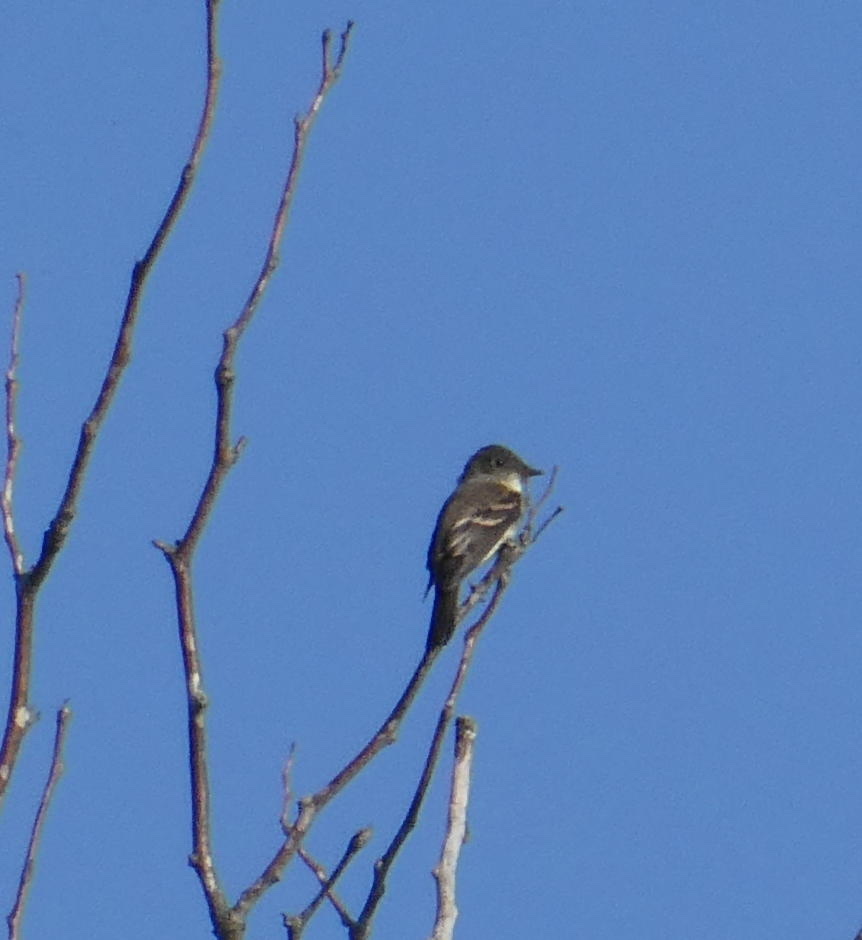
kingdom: Animalia
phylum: Chordata
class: Aves
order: Passeriformes
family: Tyrannidae
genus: Contopus
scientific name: Contopus virens
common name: Eastern wood-pewee
